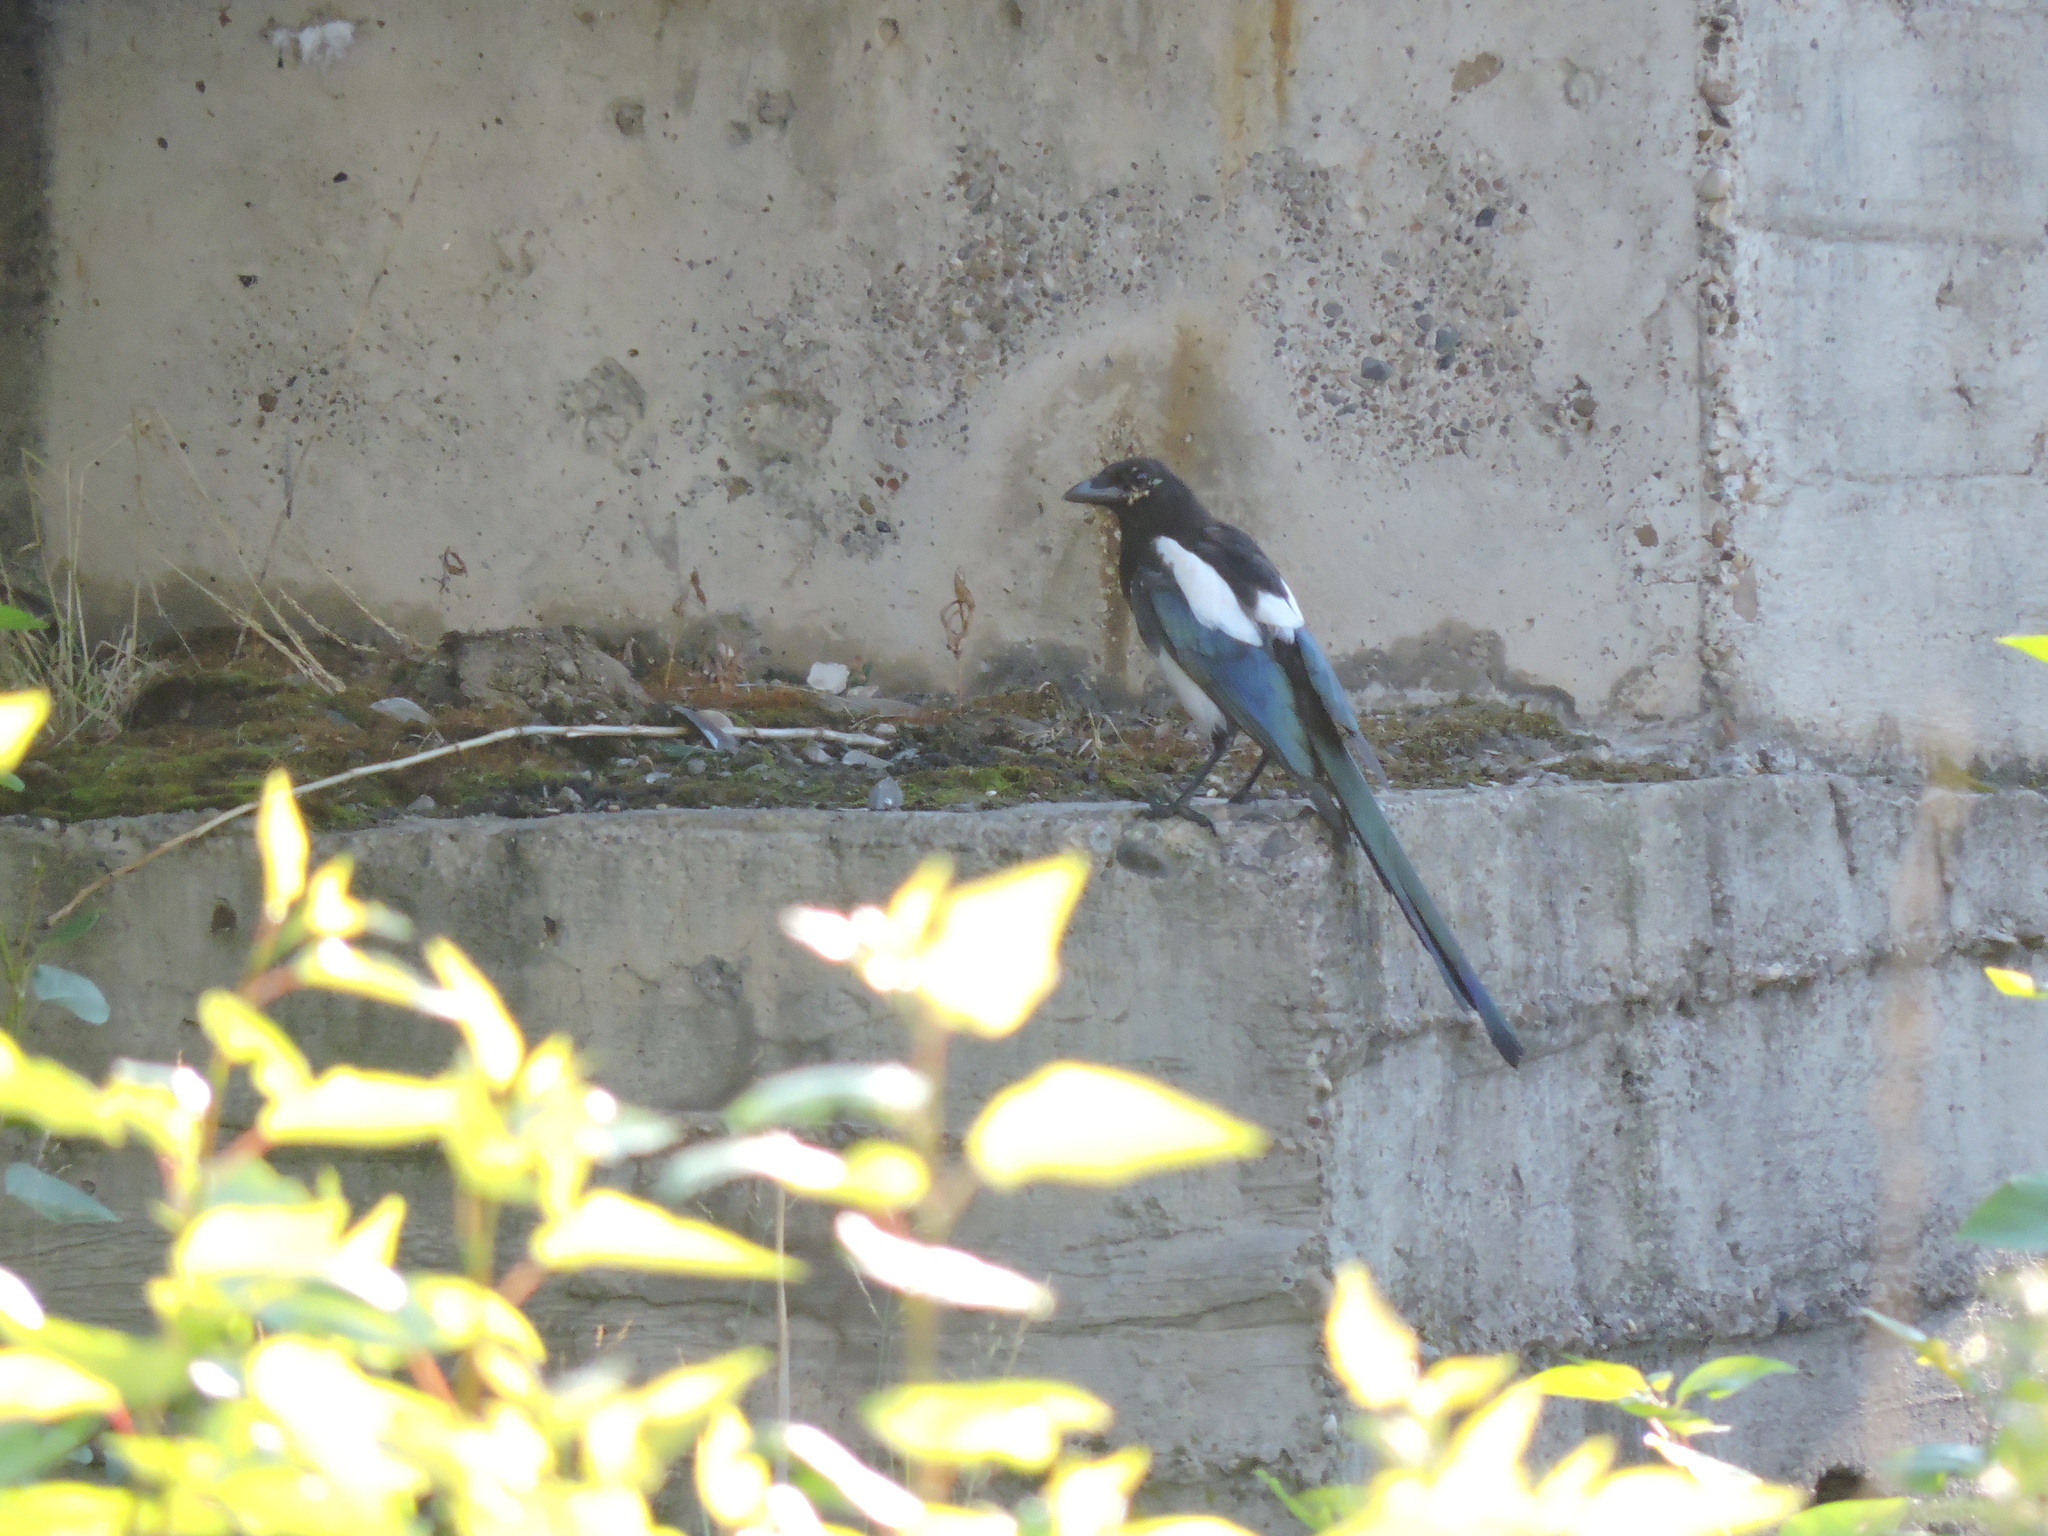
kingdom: Animalia
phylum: Chordata
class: Aves
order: Passeriformes
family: Corvidae
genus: Pica
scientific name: Pica pica
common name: Eurasian magpie
